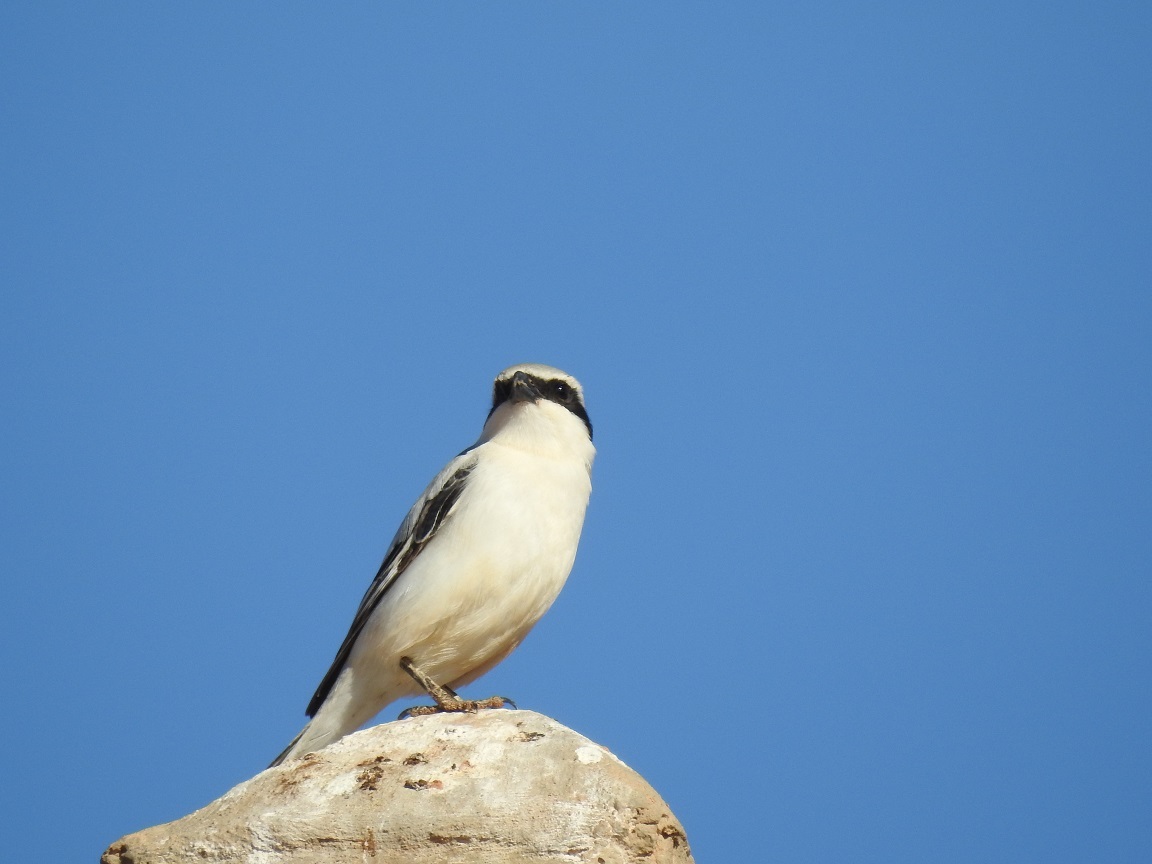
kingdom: Animalia
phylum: Chordata
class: Aves
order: Passeriformes
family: Laniidae
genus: Lanius
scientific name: Lanius excubitor
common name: Great grey shrike
